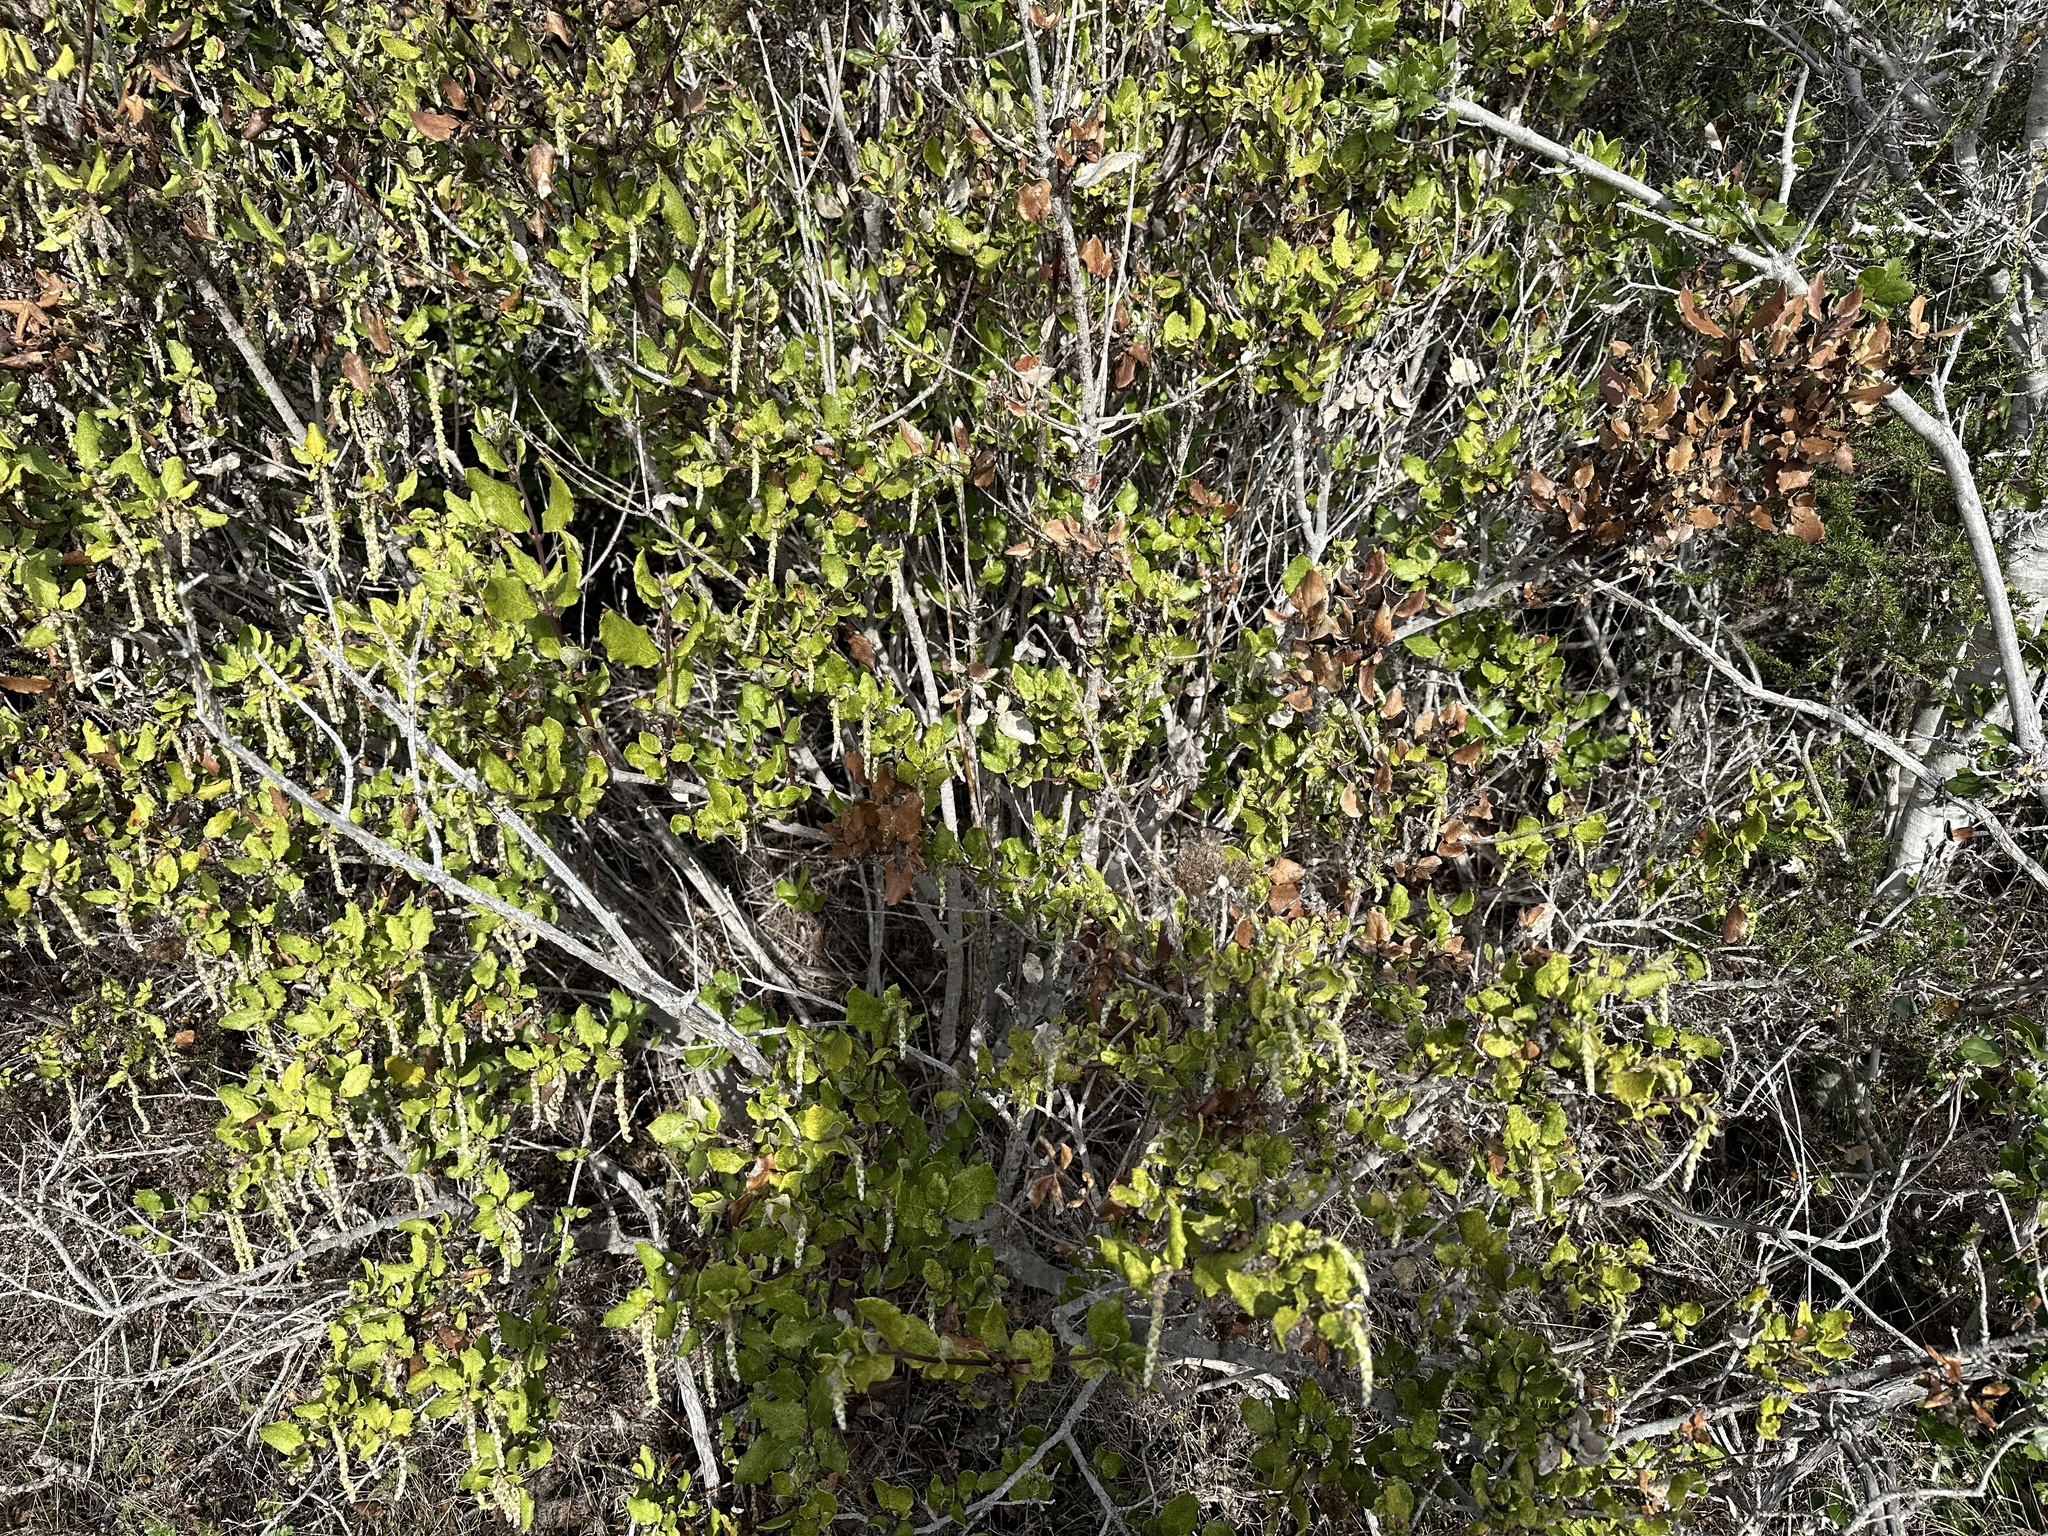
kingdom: Plantae
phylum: Tracheophyta
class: Magnoliopsida
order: Garryales
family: Garryaceae
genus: Garrya
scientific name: Garrya elliptica
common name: Silk-tassel
